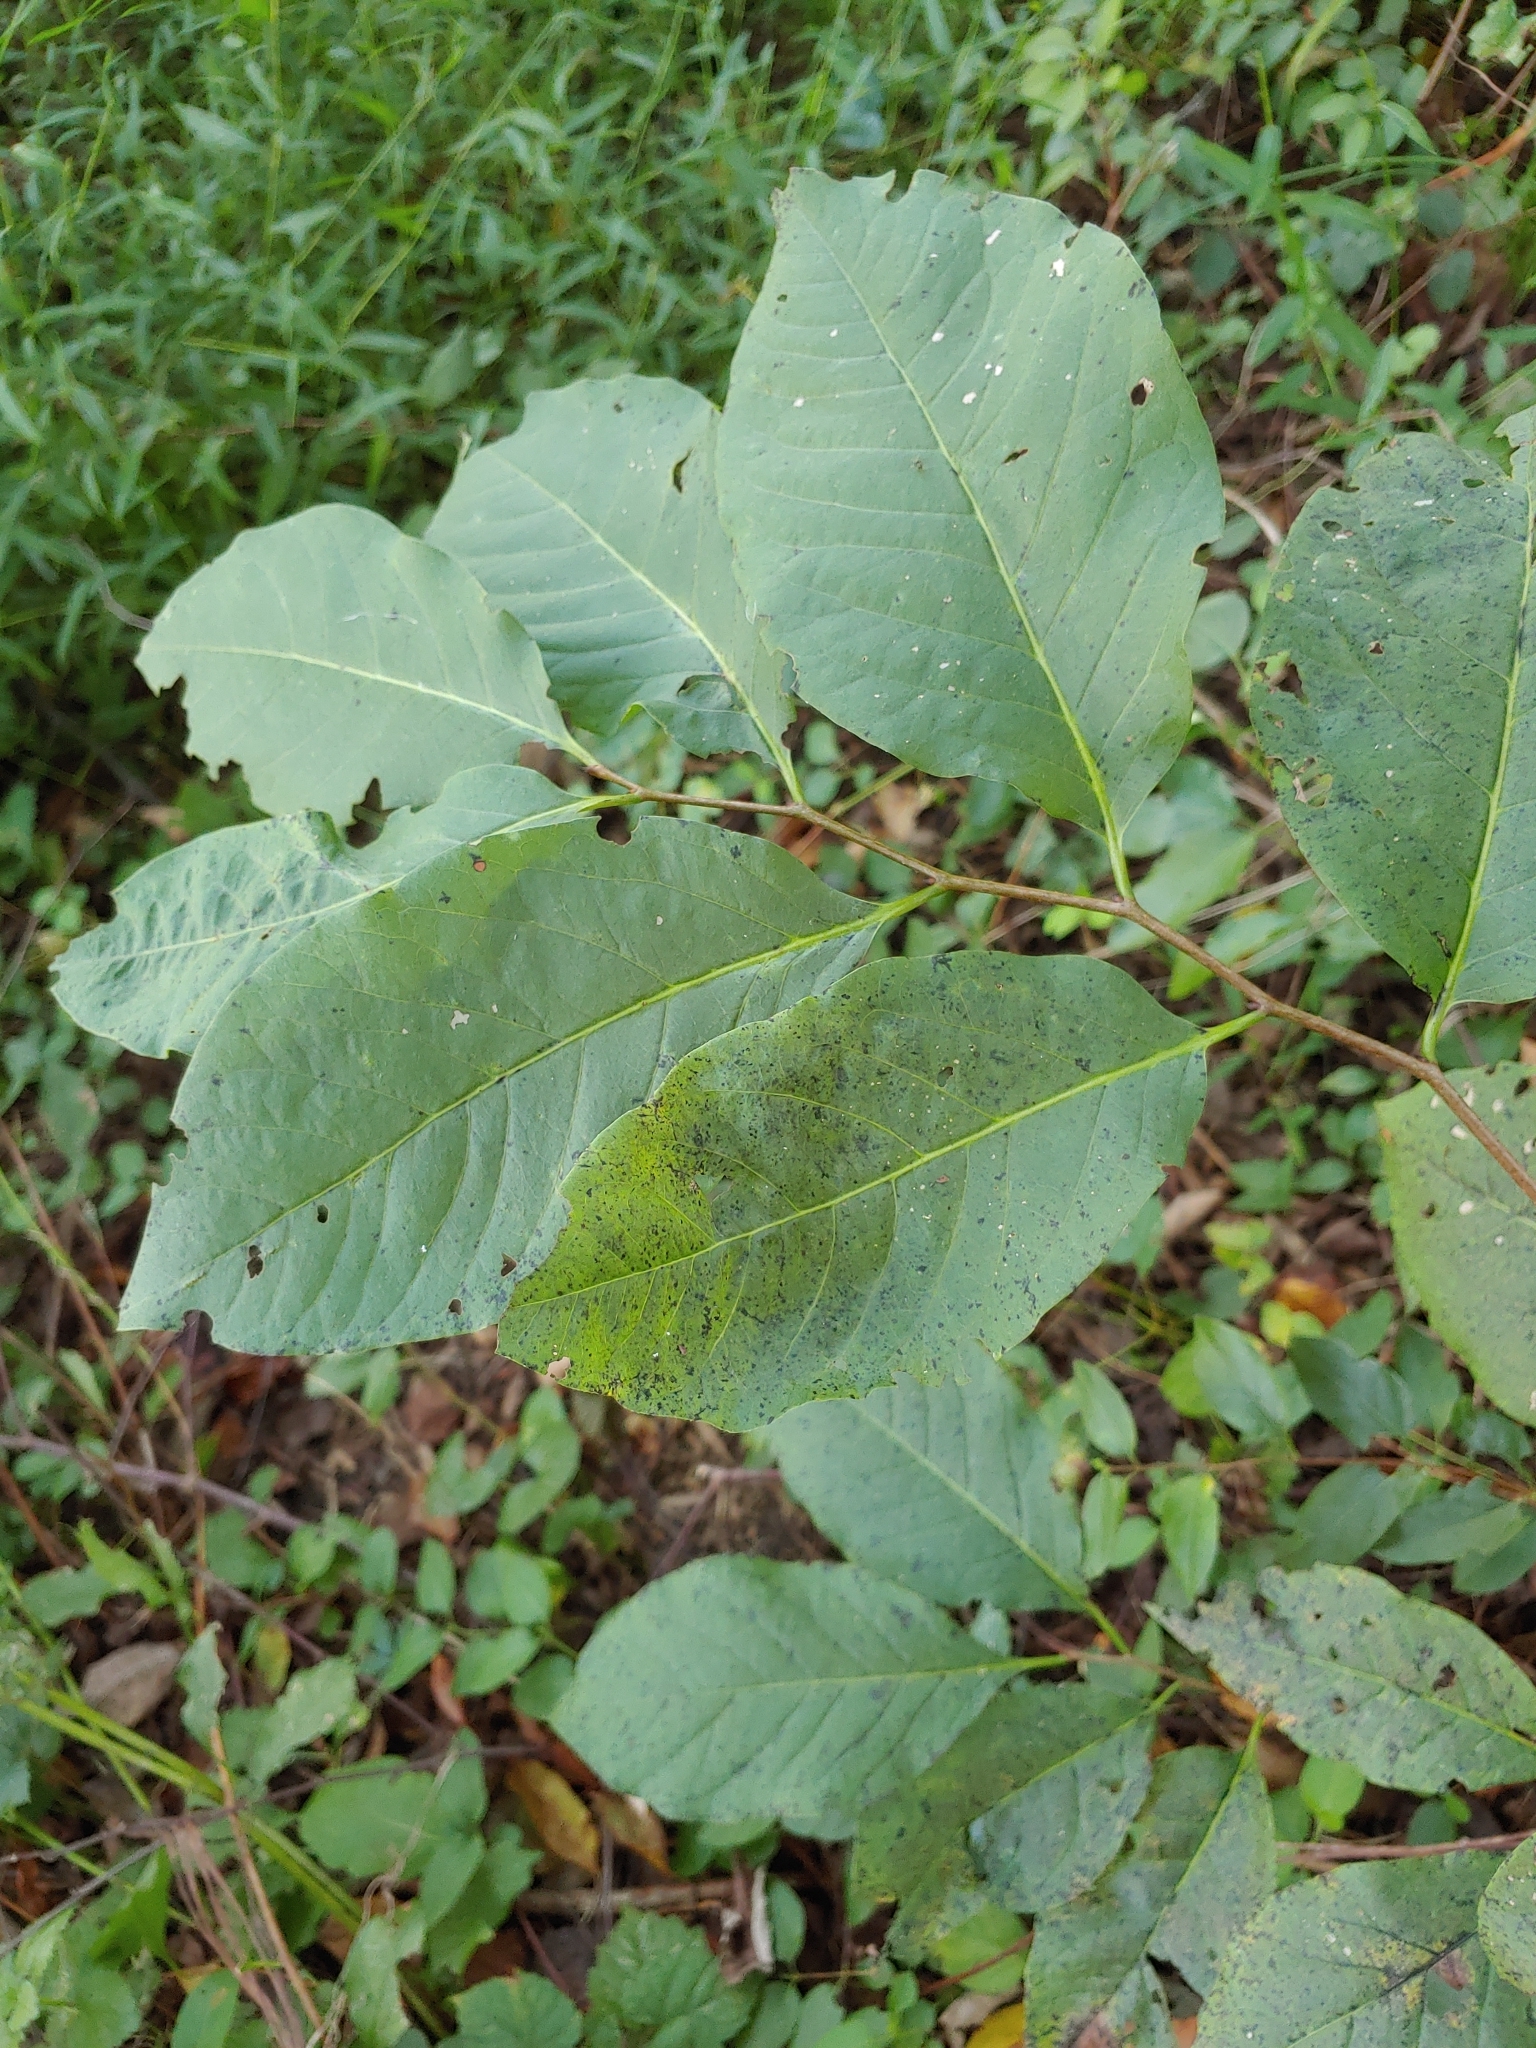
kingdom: Plantae
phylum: Tracheophyta
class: Magnoliopsida
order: Ericales
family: Ebenaceae
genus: Diospyros
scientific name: Diospyros virginiana
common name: Persimmon
